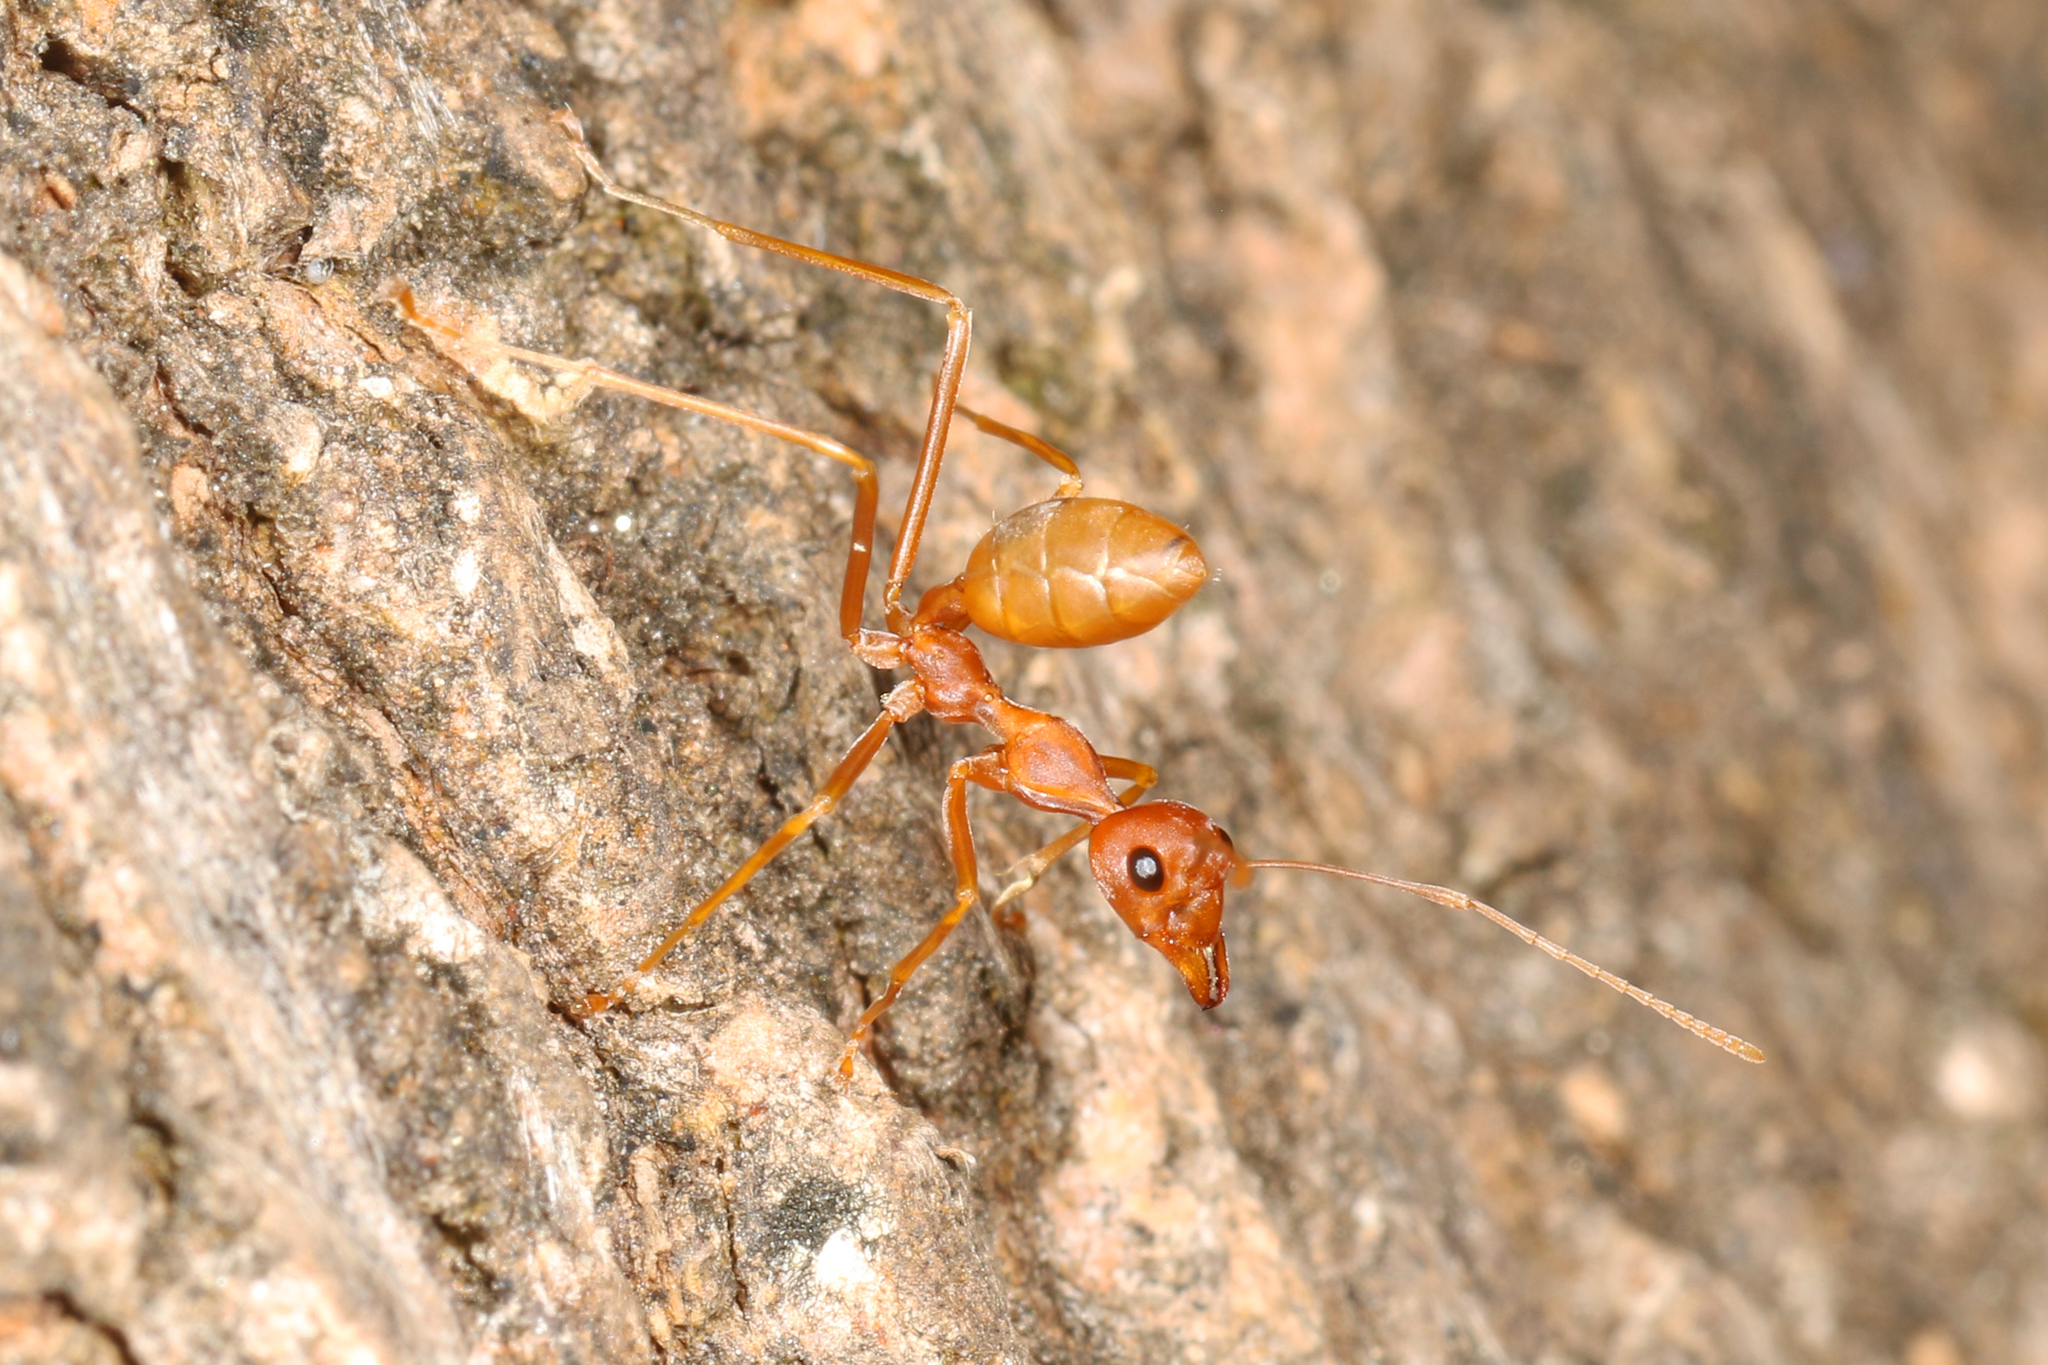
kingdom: Animalia
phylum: Arthropoda
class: Insecta
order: Hymenoptera
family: Formicidae
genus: Oecophylla
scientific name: Oecophylla longinoda
